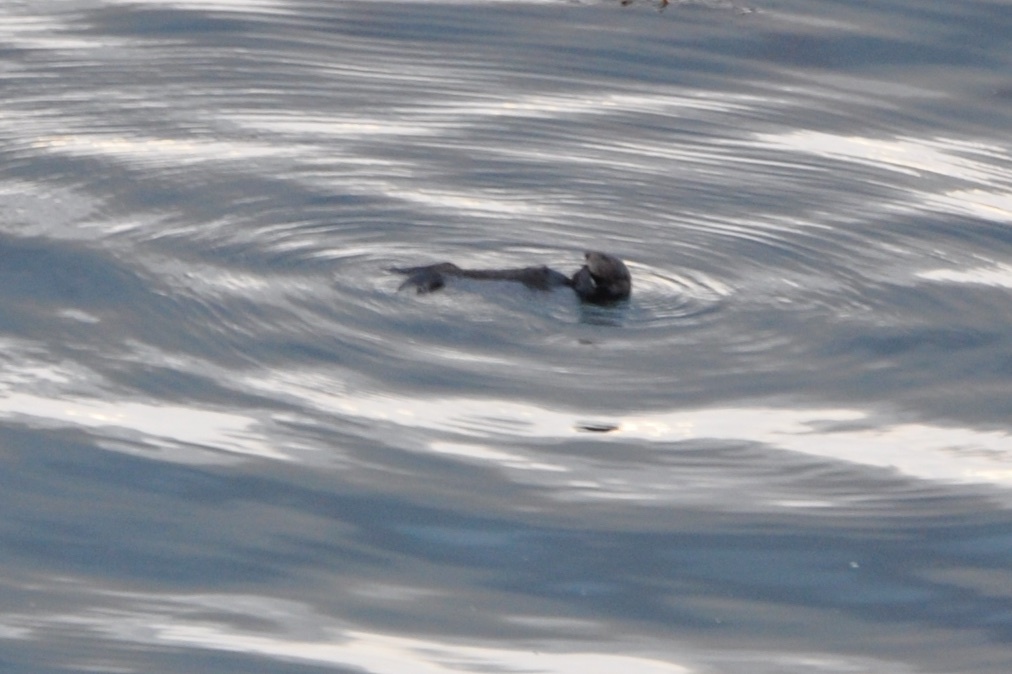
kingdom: Animalia
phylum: Chordata
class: Mammalia
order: Carnivora
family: Mustelidae
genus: Enhydra
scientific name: Enhydra lutris
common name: Sea otter
